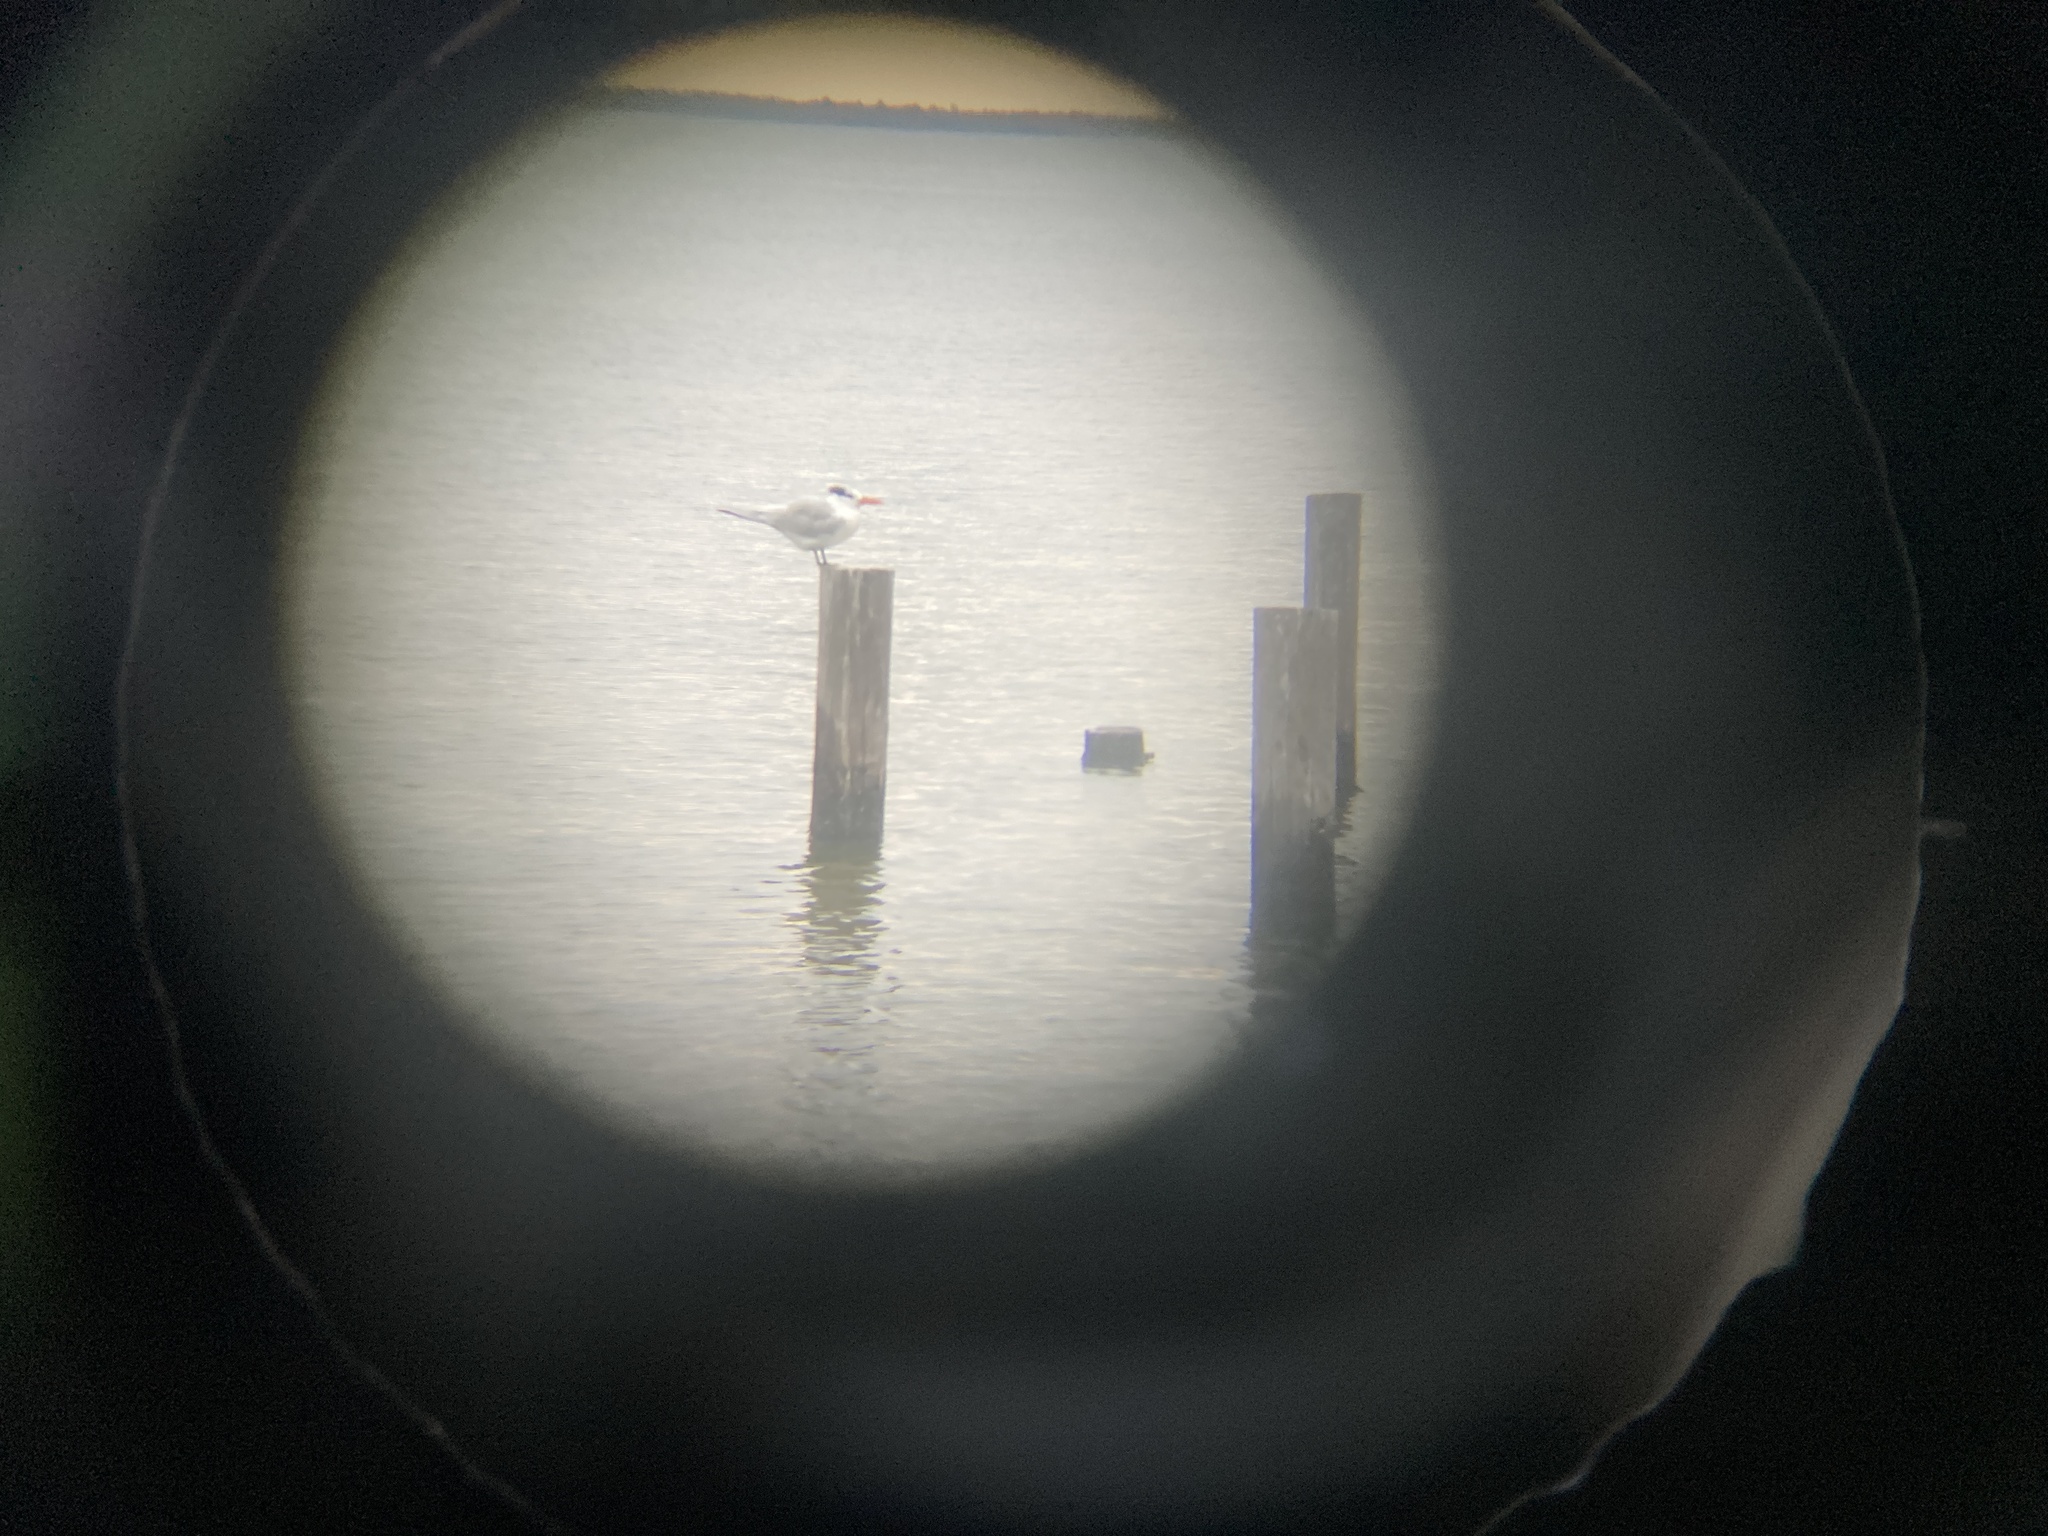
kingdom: Animalia
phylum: Chordata
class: Aves
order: Charadriiformes
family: Laridae
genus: Thalasseus
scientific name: Thalasseus maximus
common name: Royal tern
